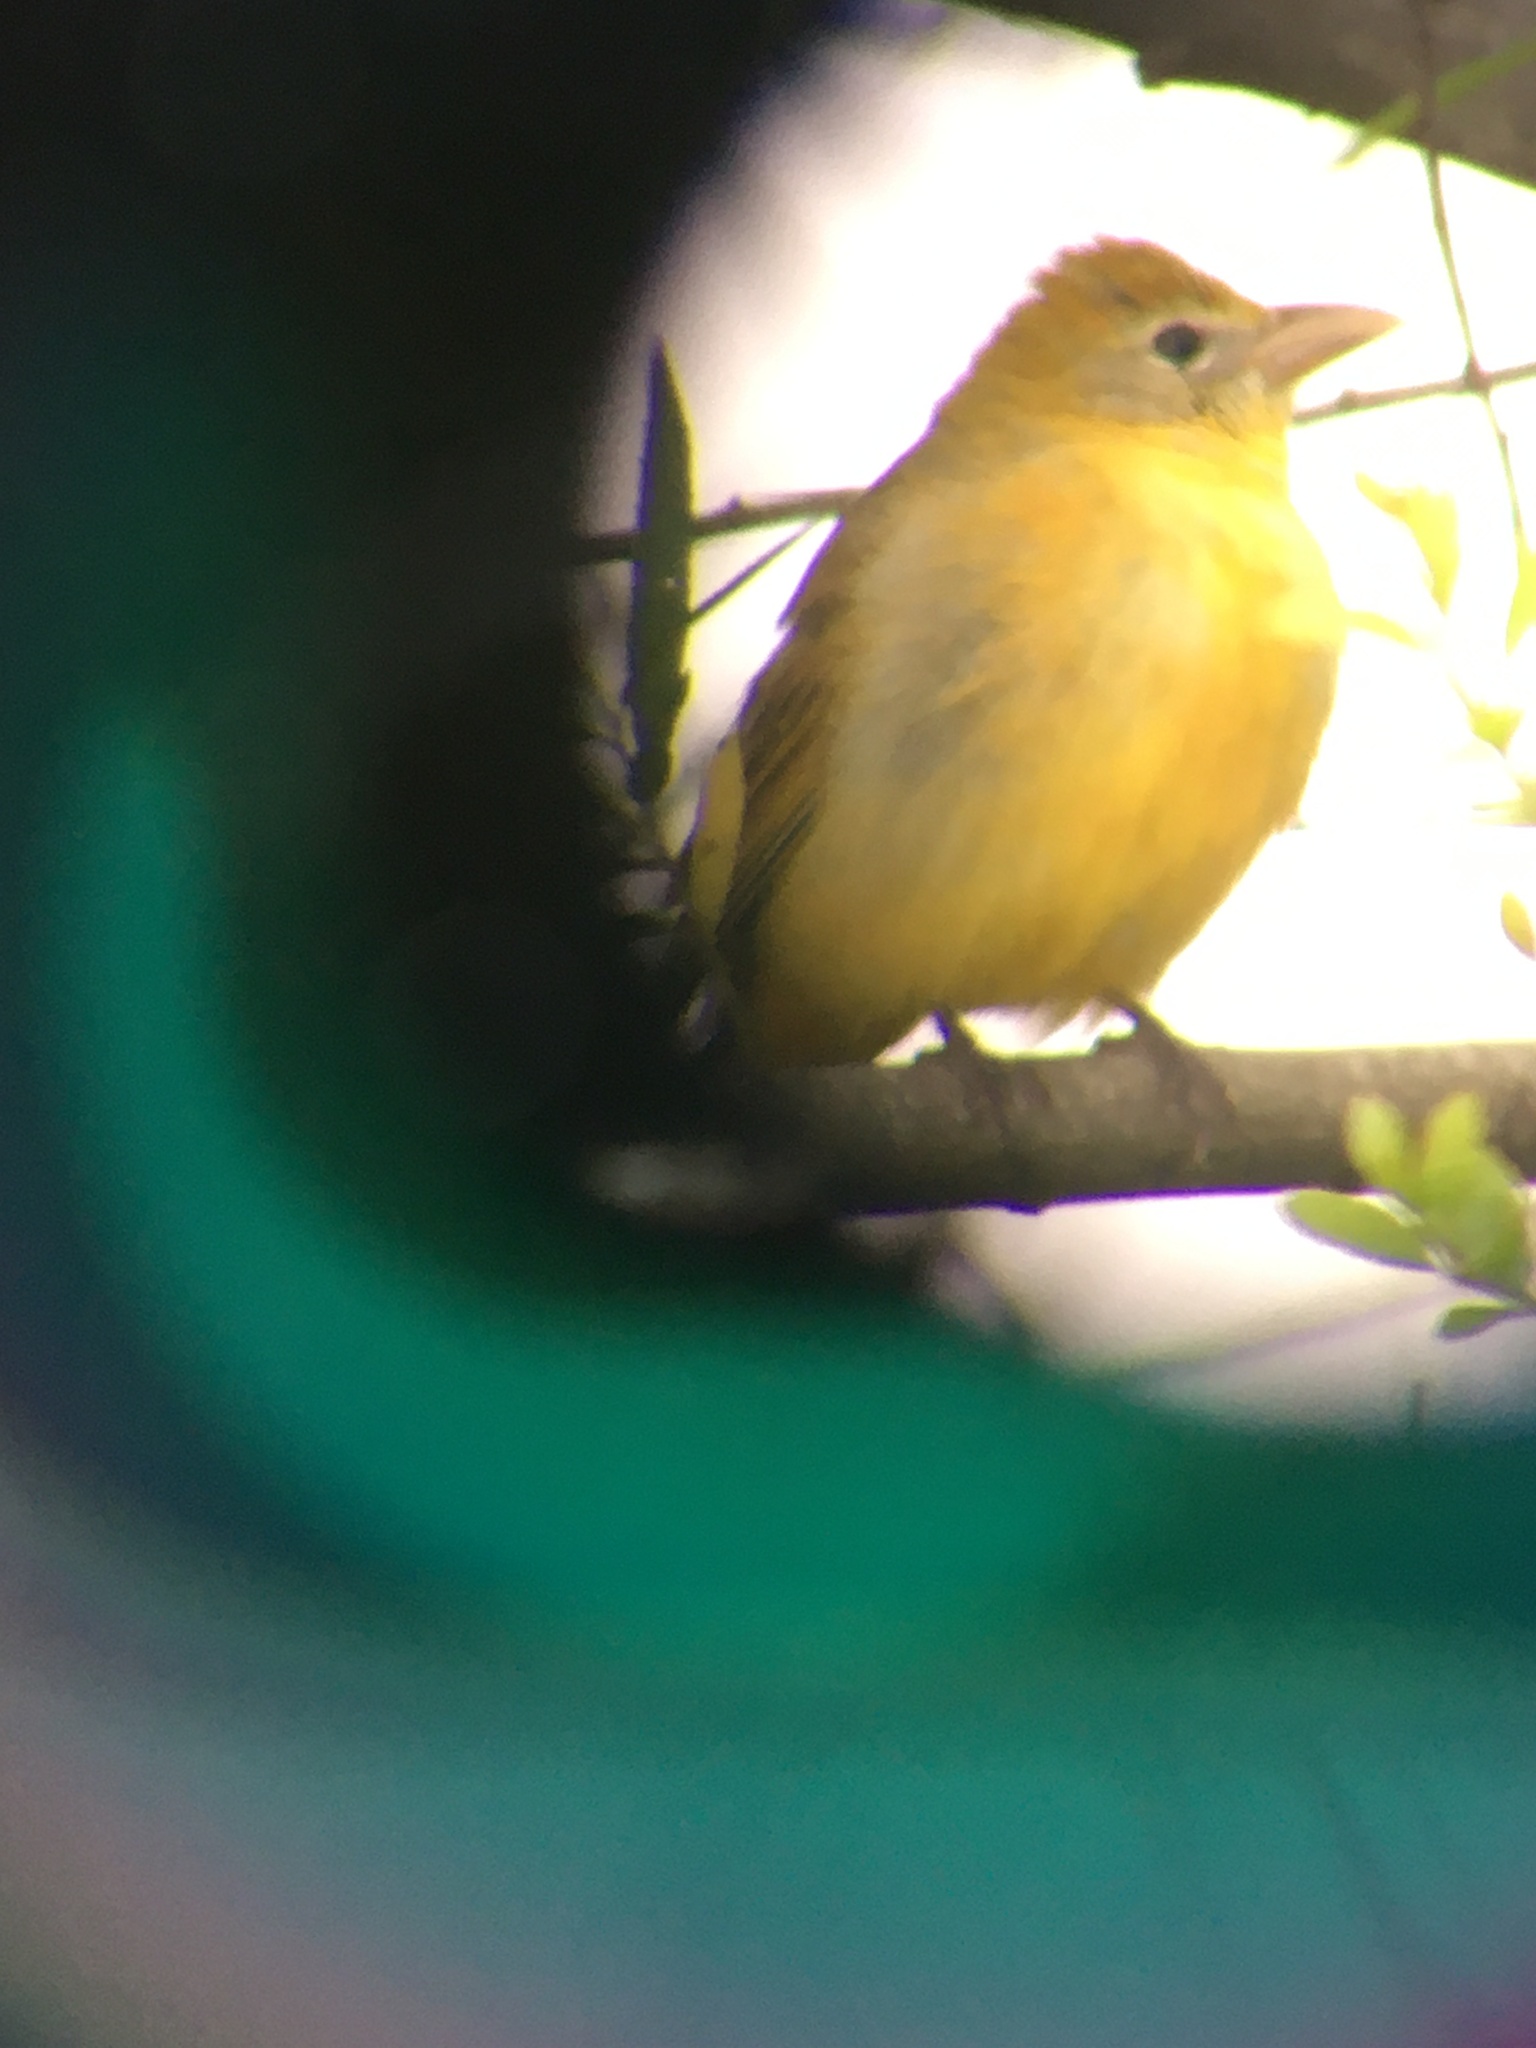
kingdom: Animalia
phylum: Chordata
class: Aves
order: Passeriformes
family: Cardinalidae
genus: Piranga
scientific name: Piranga rubra
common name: Summer tanager
